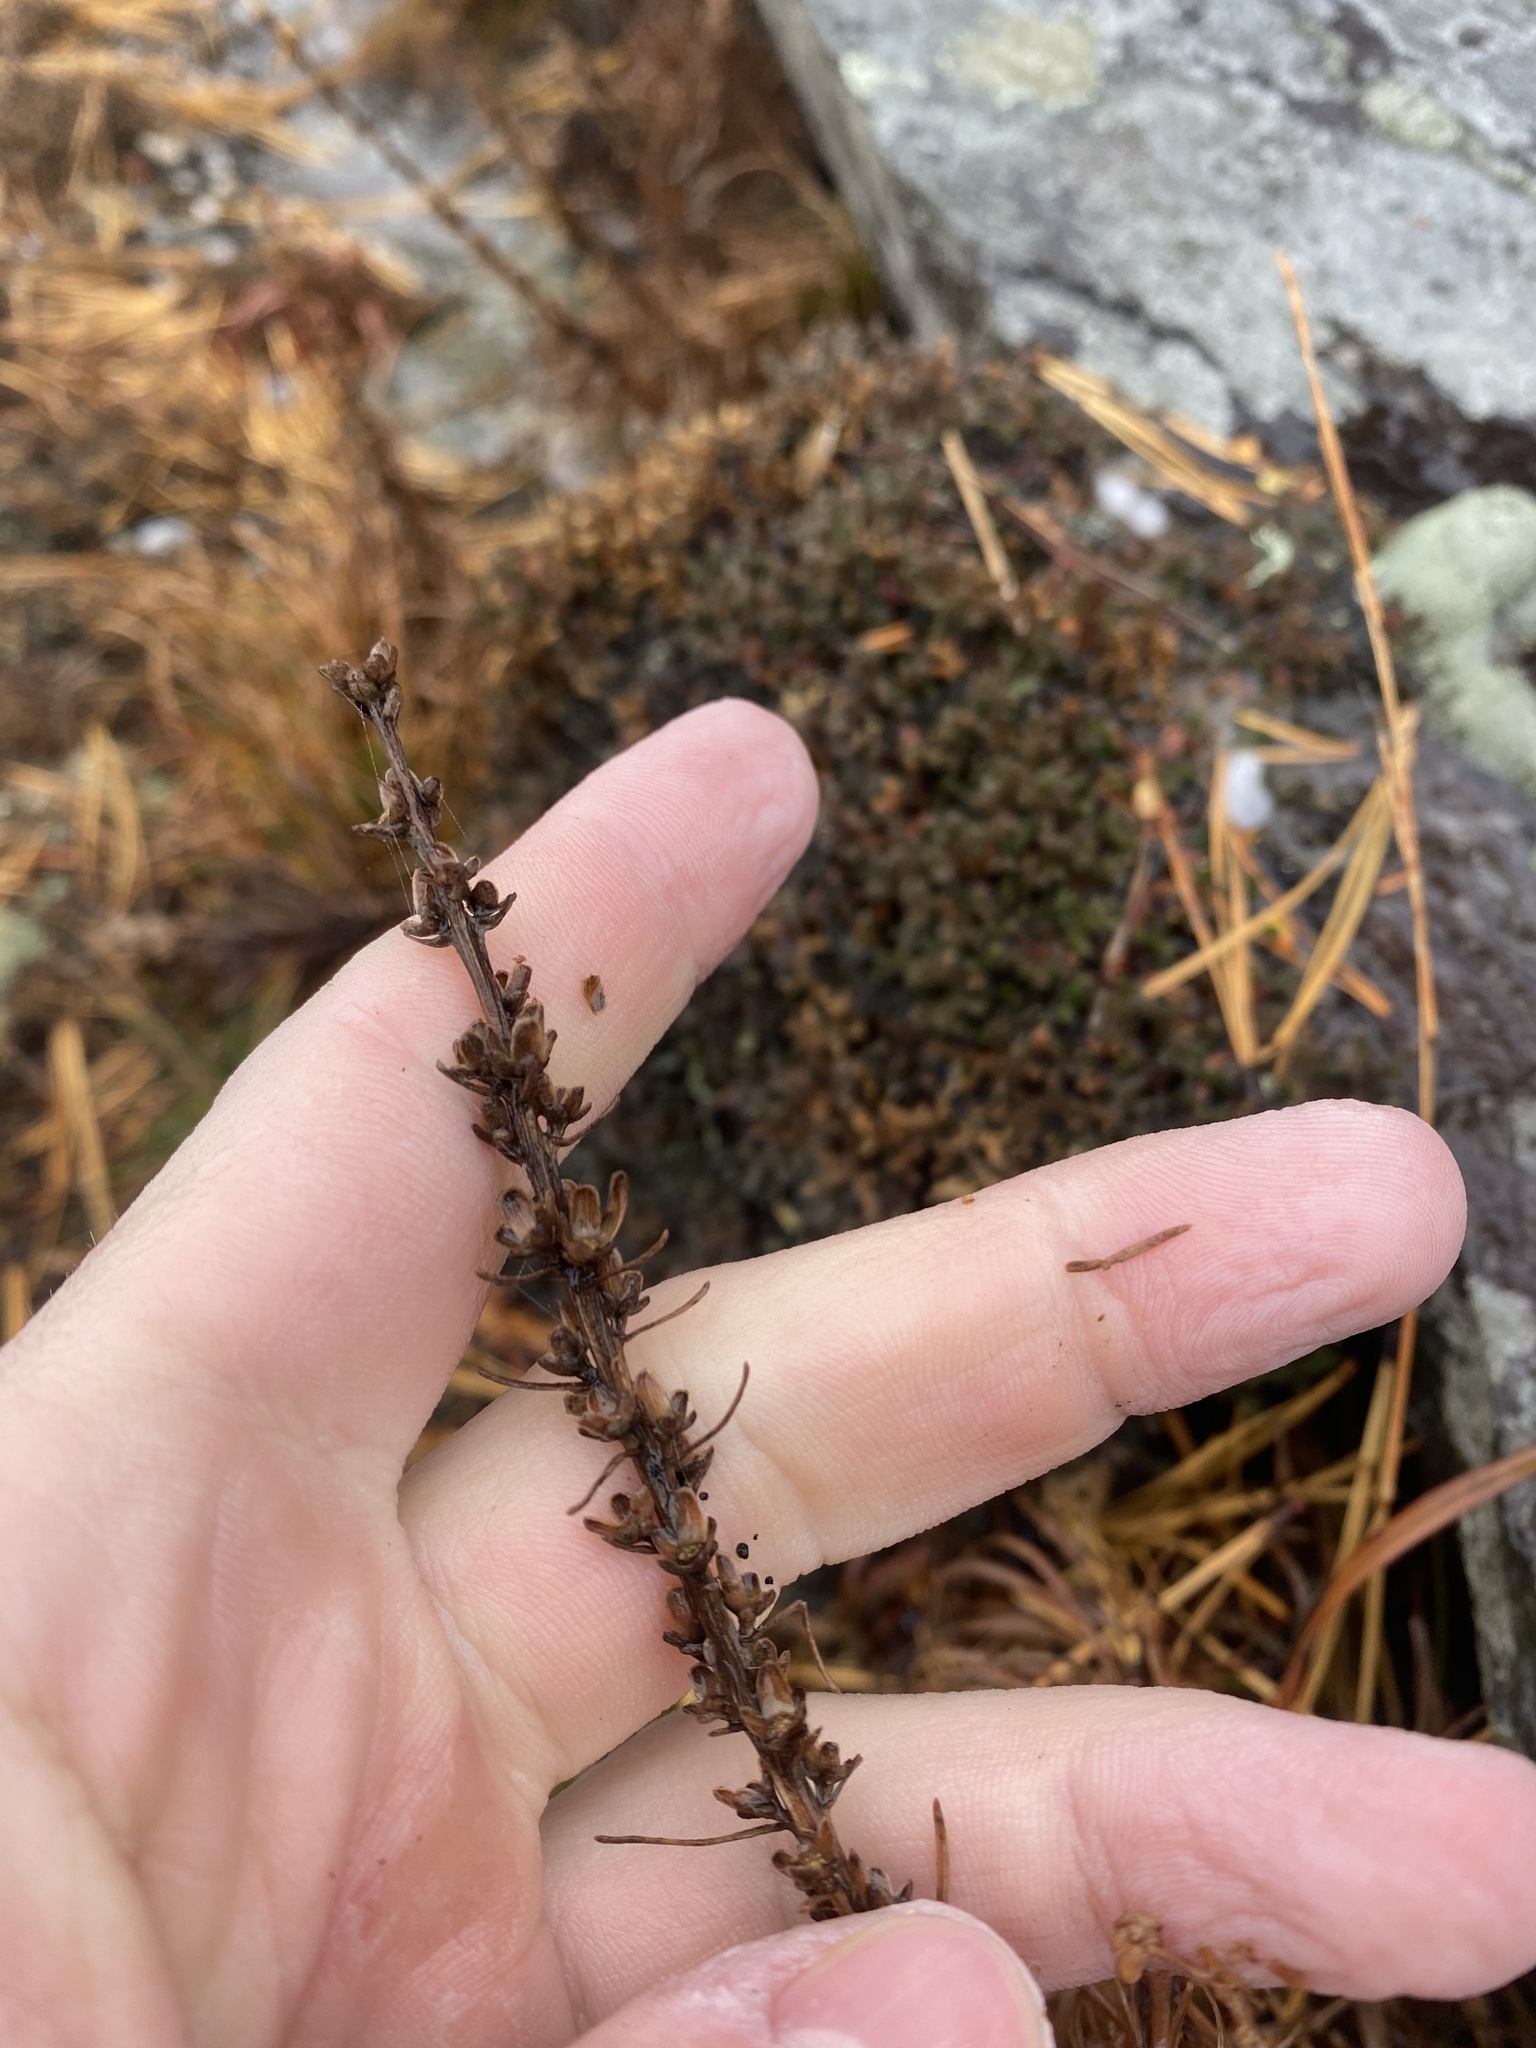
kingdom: Plantae
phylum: Tracheophyta
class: Magnoliopsida
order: Asterales
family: Asteraceae
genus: Liatris
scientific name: Liatris helleri
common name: Heller's blazingstar
